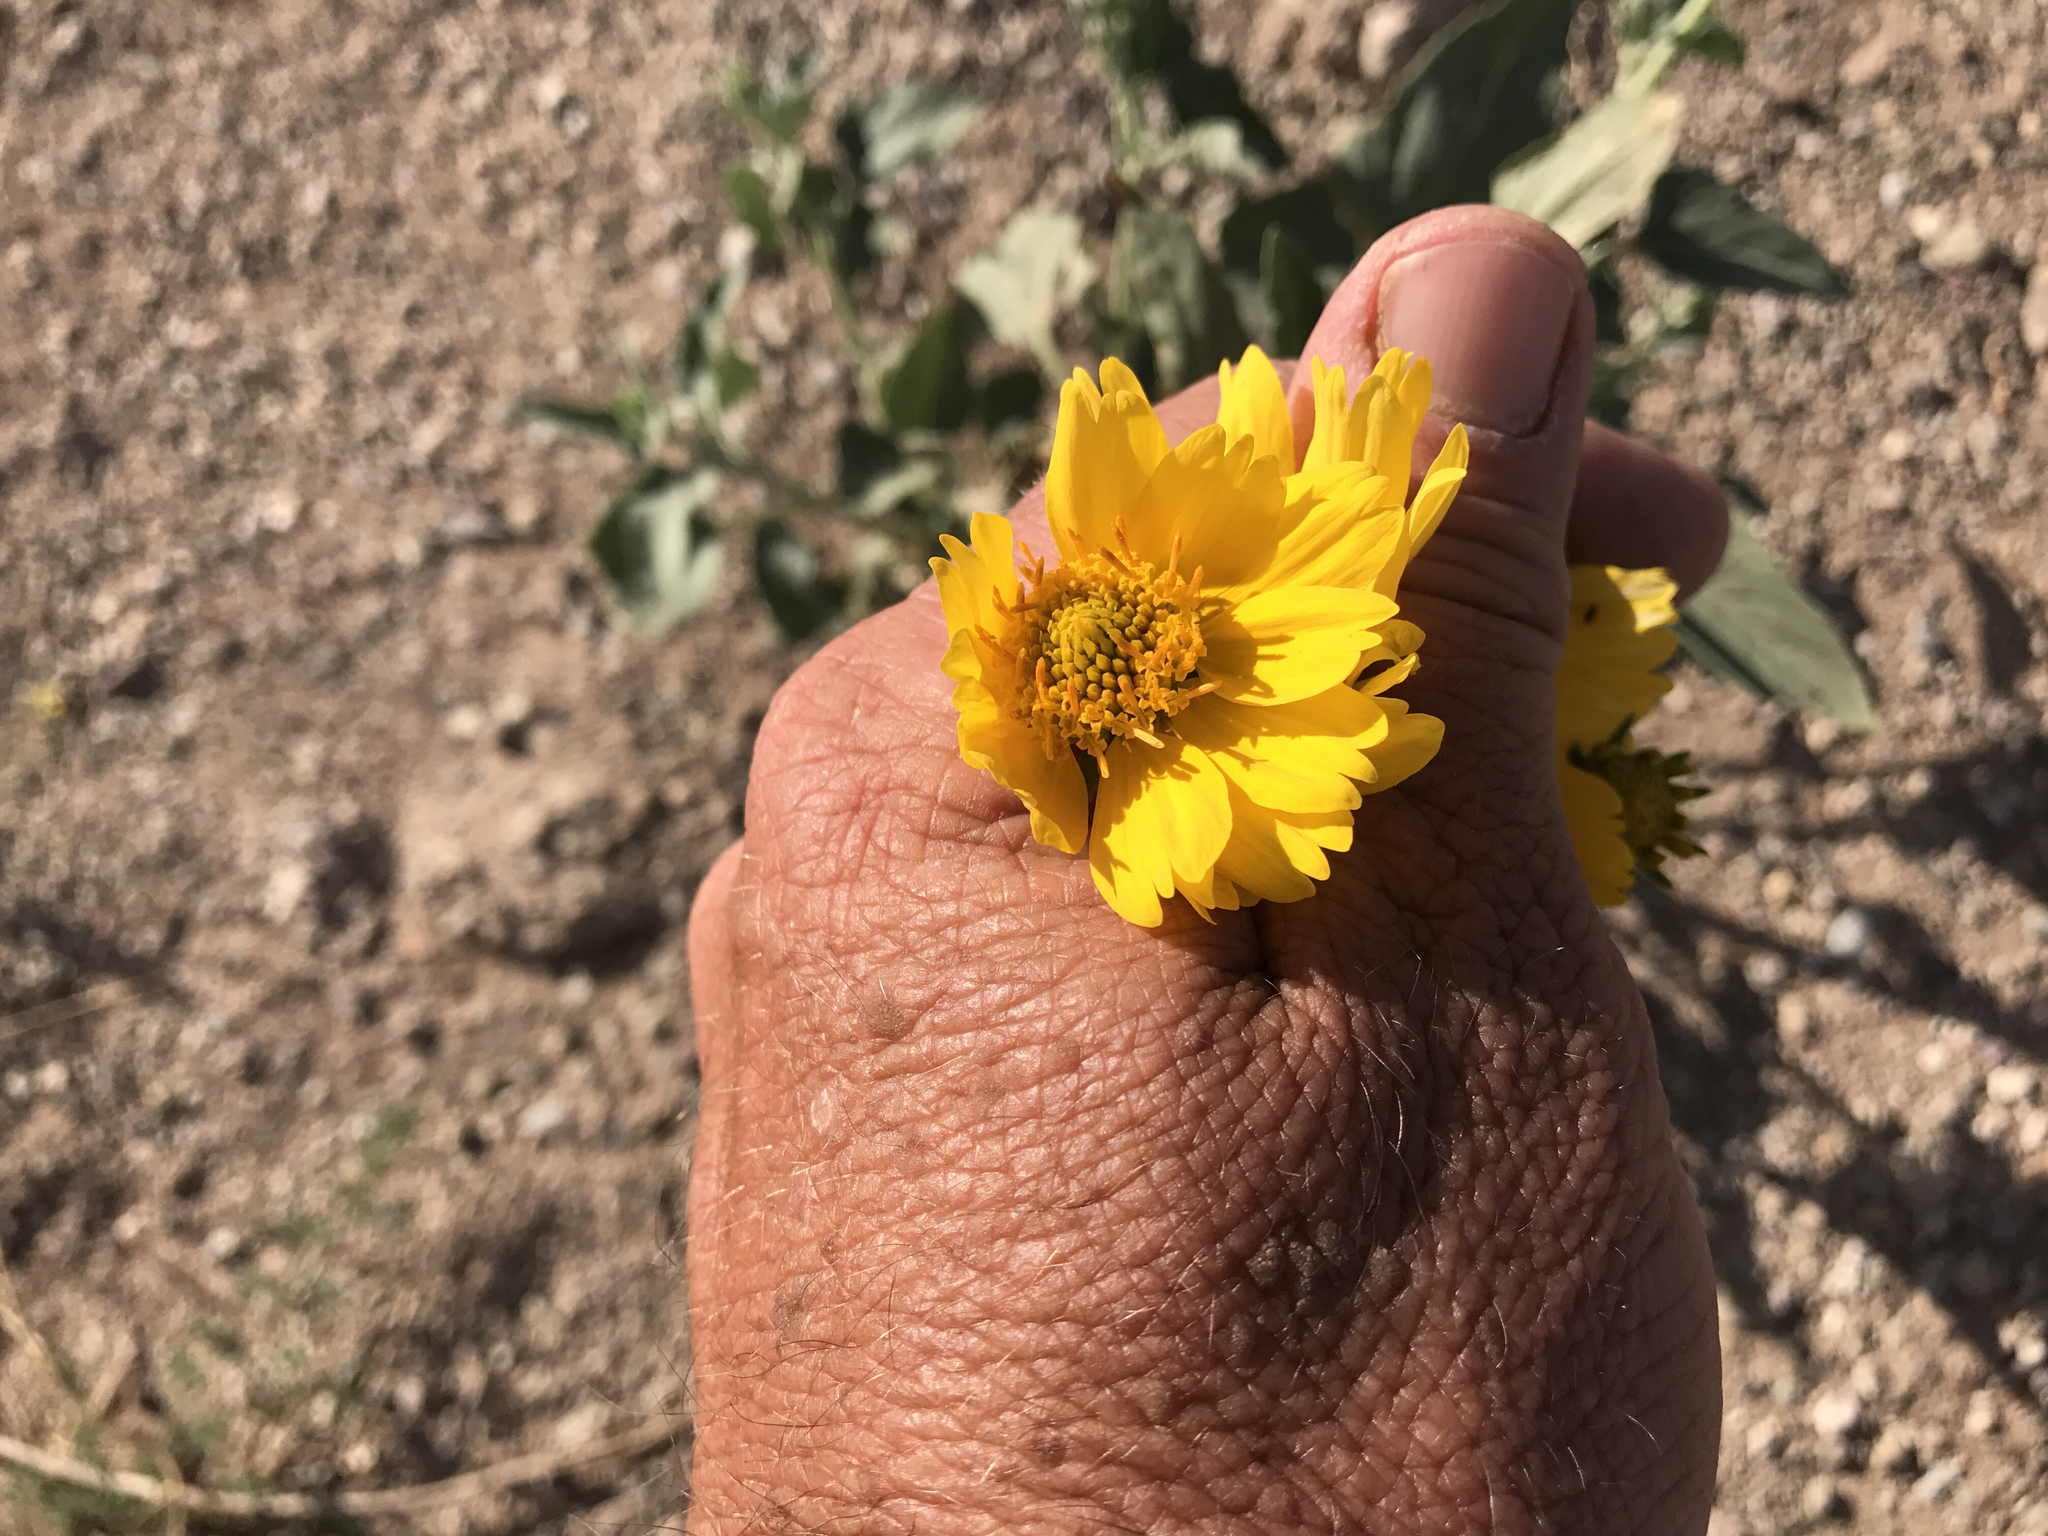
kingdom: Plantae
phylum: Tracheophyta
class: Magnoliopsida
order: Asterales
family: Asteraceae
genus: Verbesina
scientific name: Verbesina encelioides
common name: Golden crownbeard
